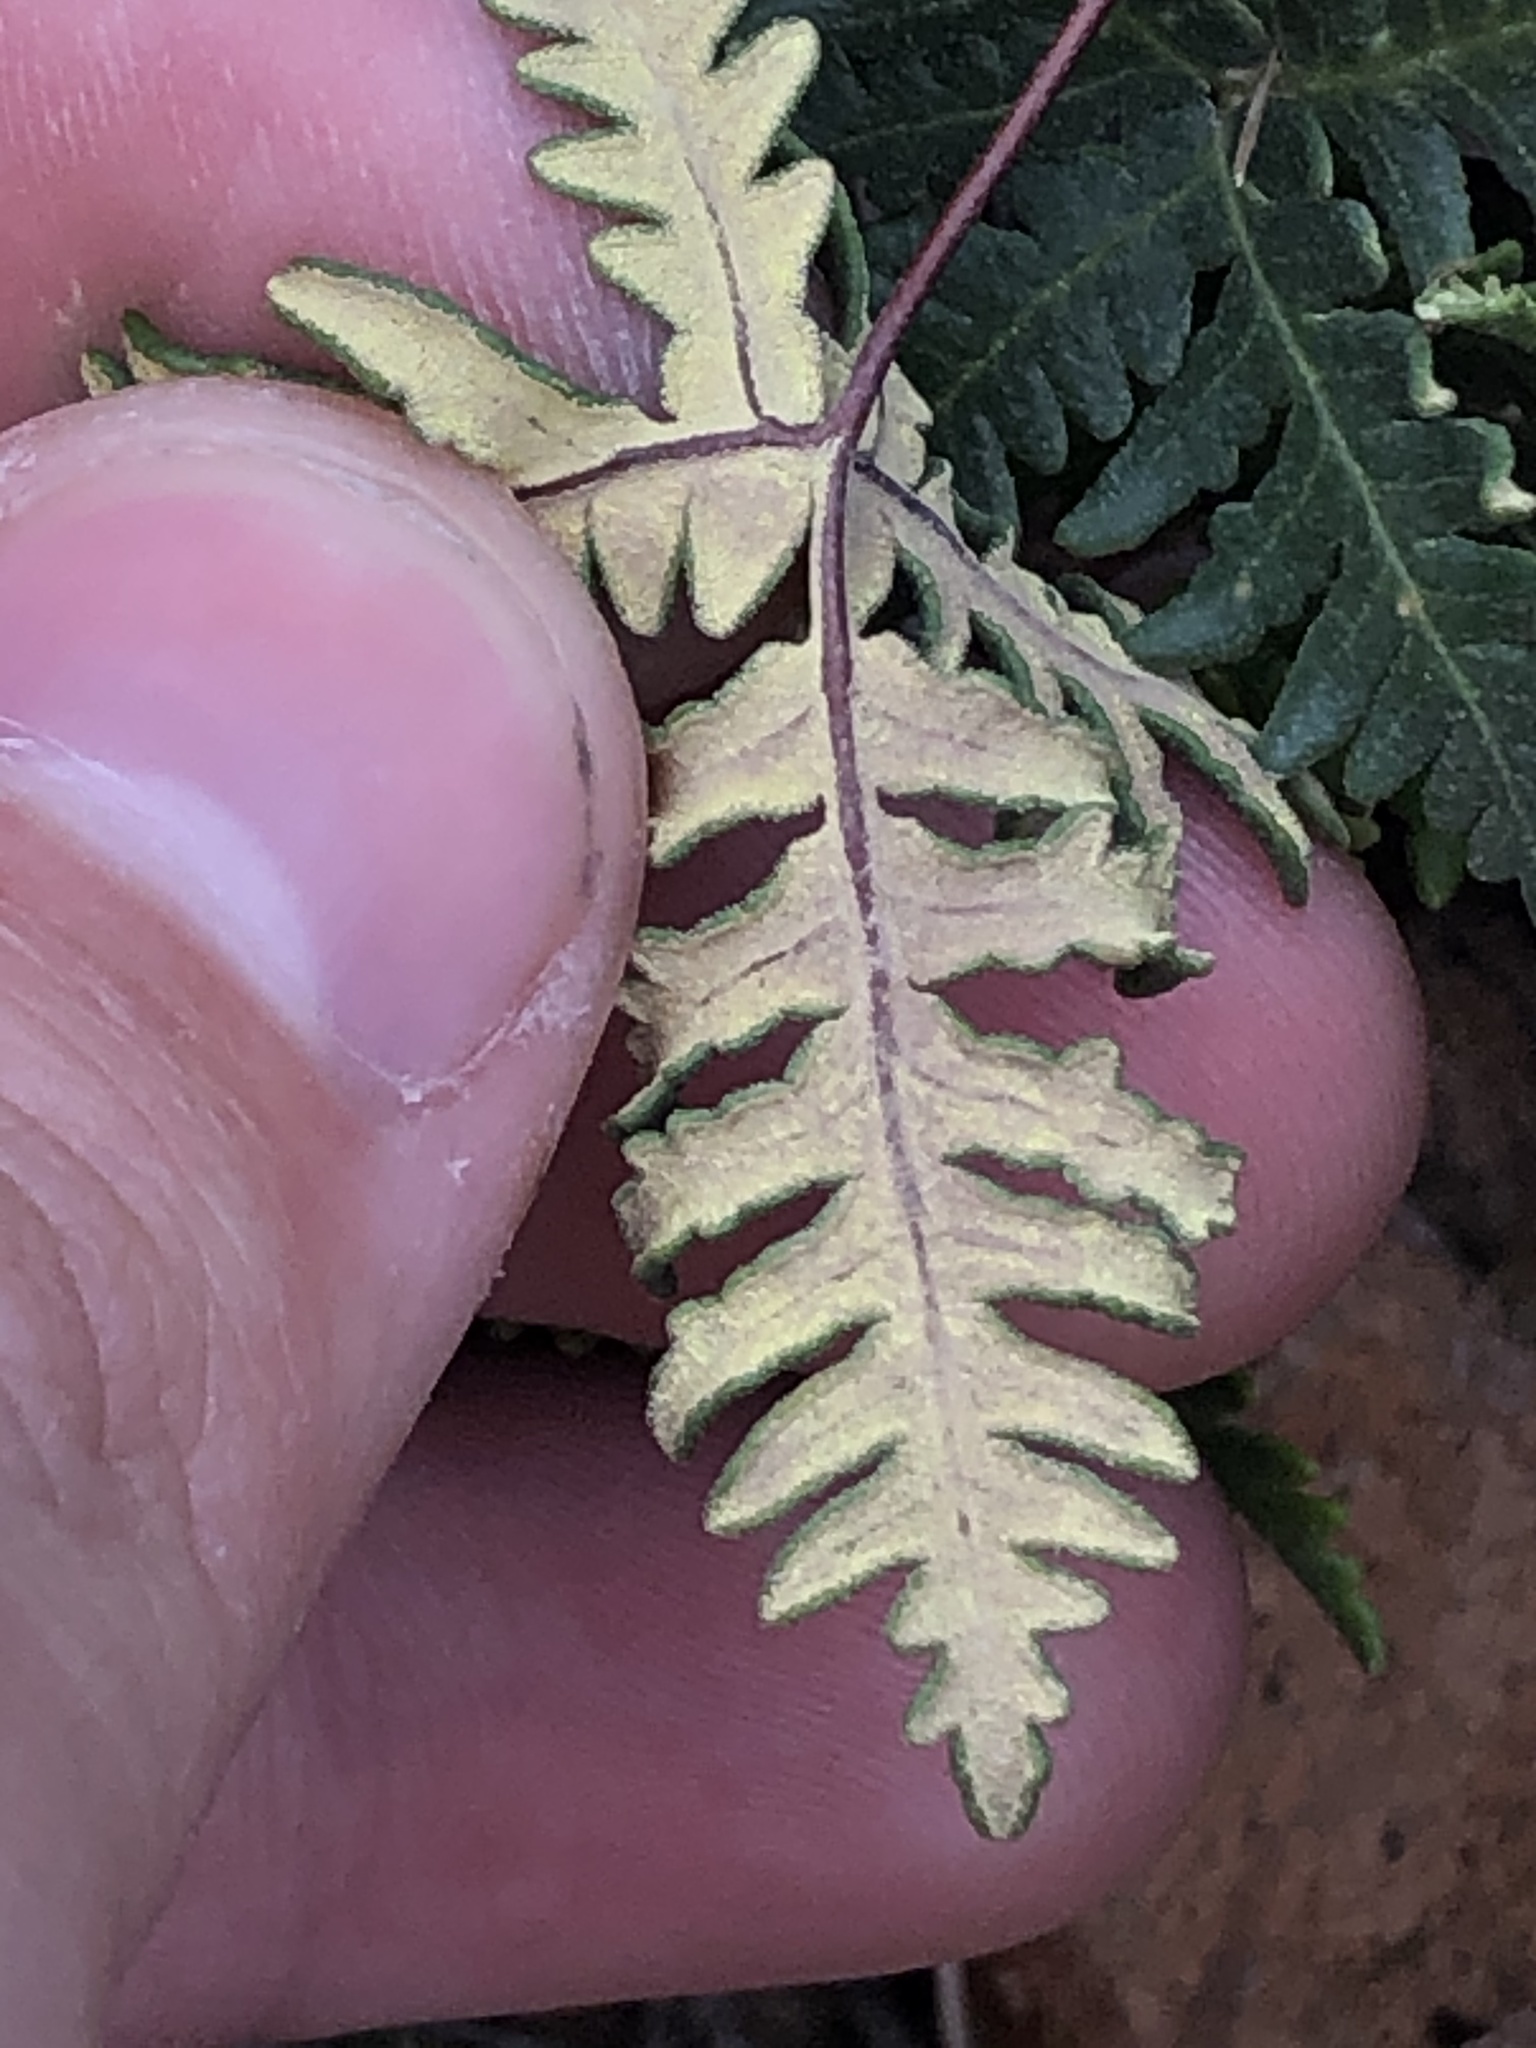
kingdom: Plantae
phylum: Tracheophyta
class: Polypodiopsida
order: Polypodiales
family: Pteridaceae
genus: Notholaena
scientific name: Notholaena standleyi
